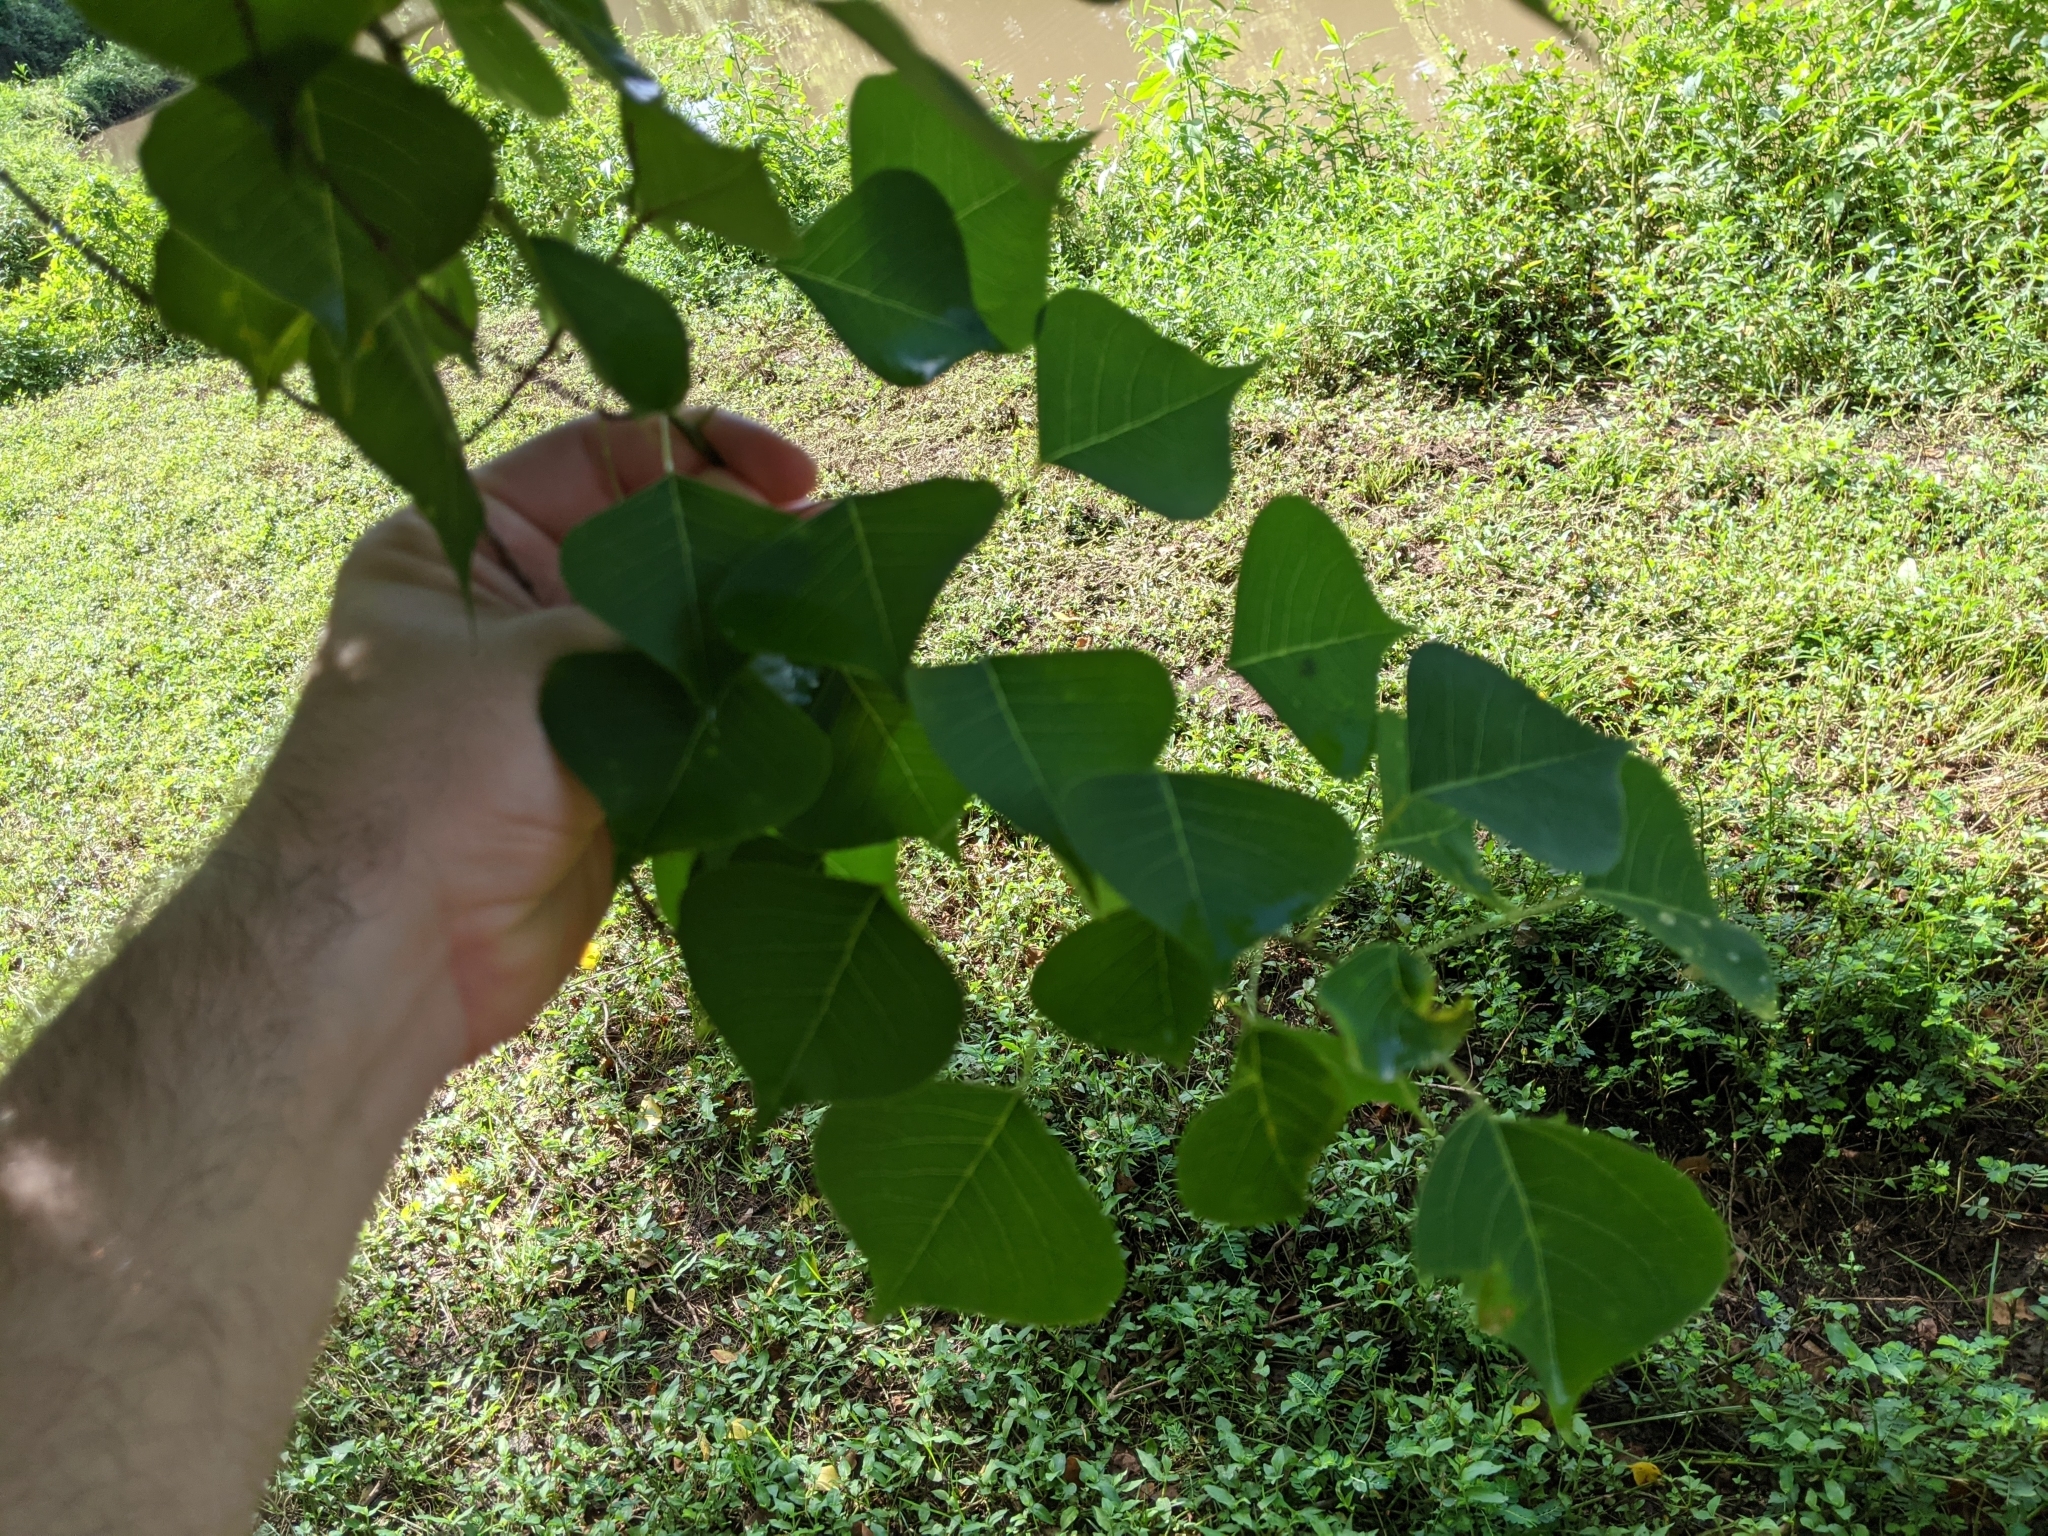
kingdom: Plantae
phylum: Tracheophyta
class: Magnoliopsida
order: Malpighiales
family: Euphorbiaceae
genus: Triadica
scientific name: Triadica sebifera
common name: Chinese tallow
